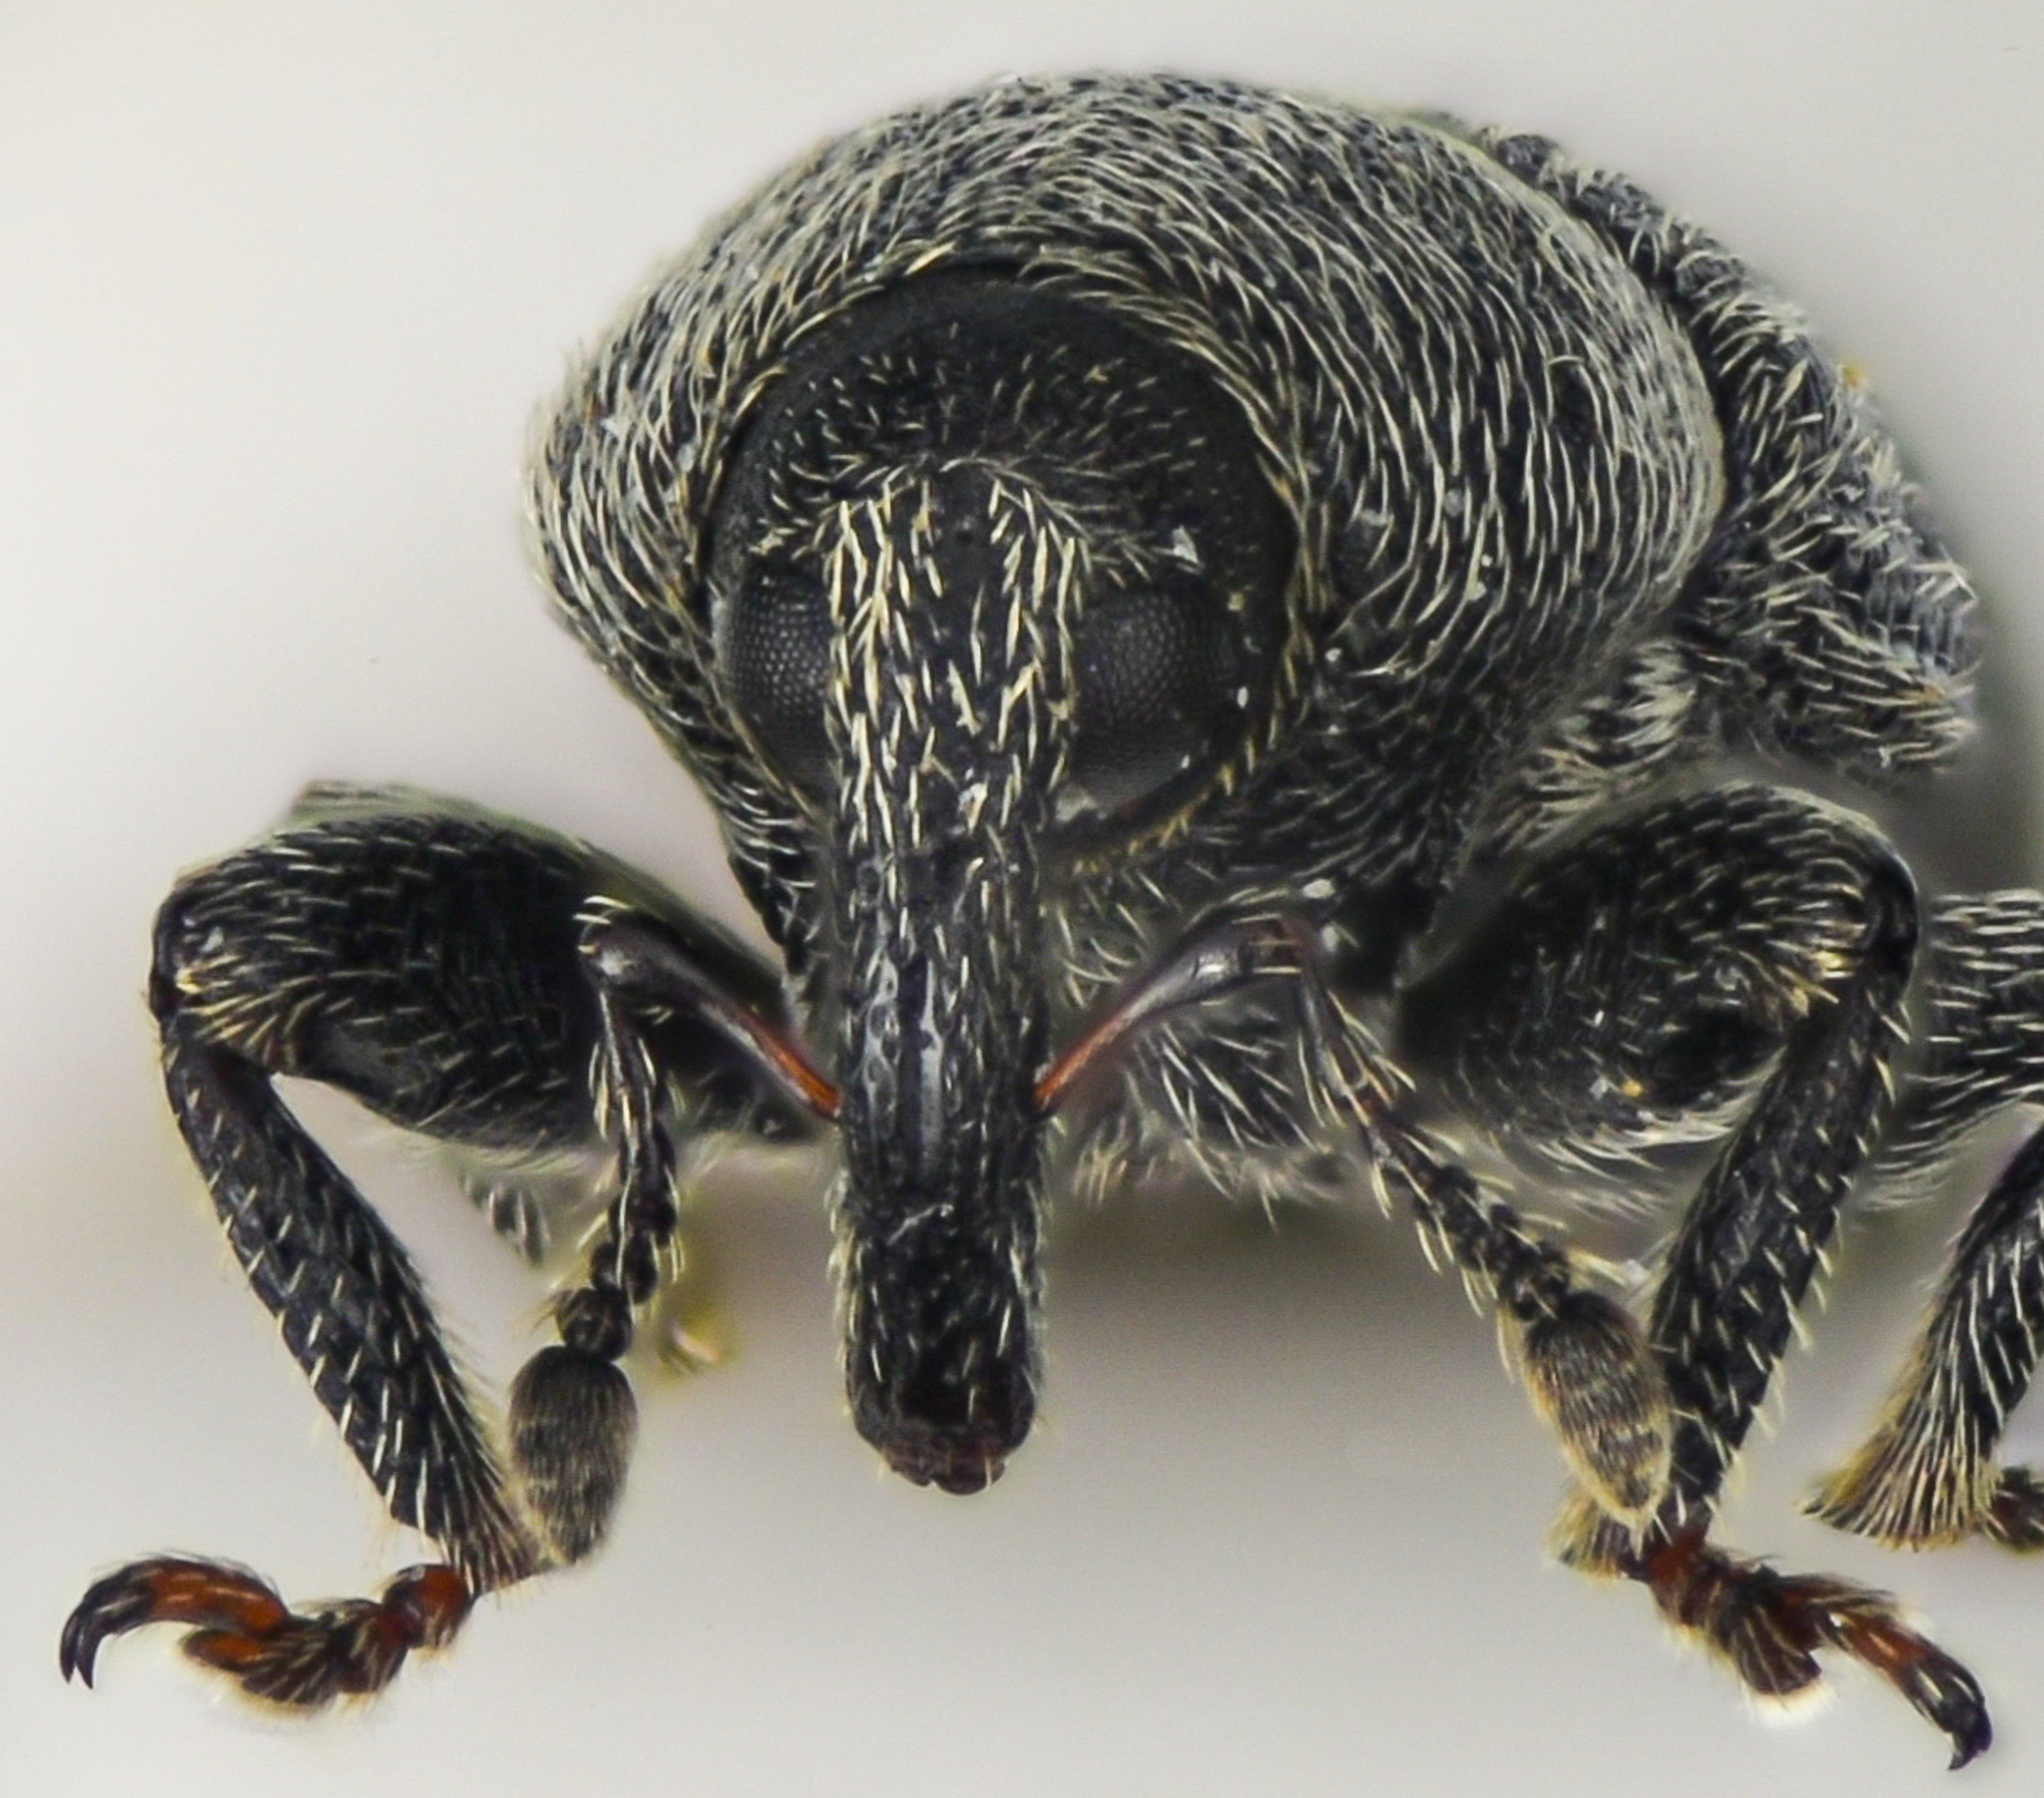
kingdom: Animalia
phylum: Arthropoda
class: Insecta
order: Coleoptera
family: Curculionidae
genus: Mecinus
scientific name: Mecinus pyraster
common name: Weevil
